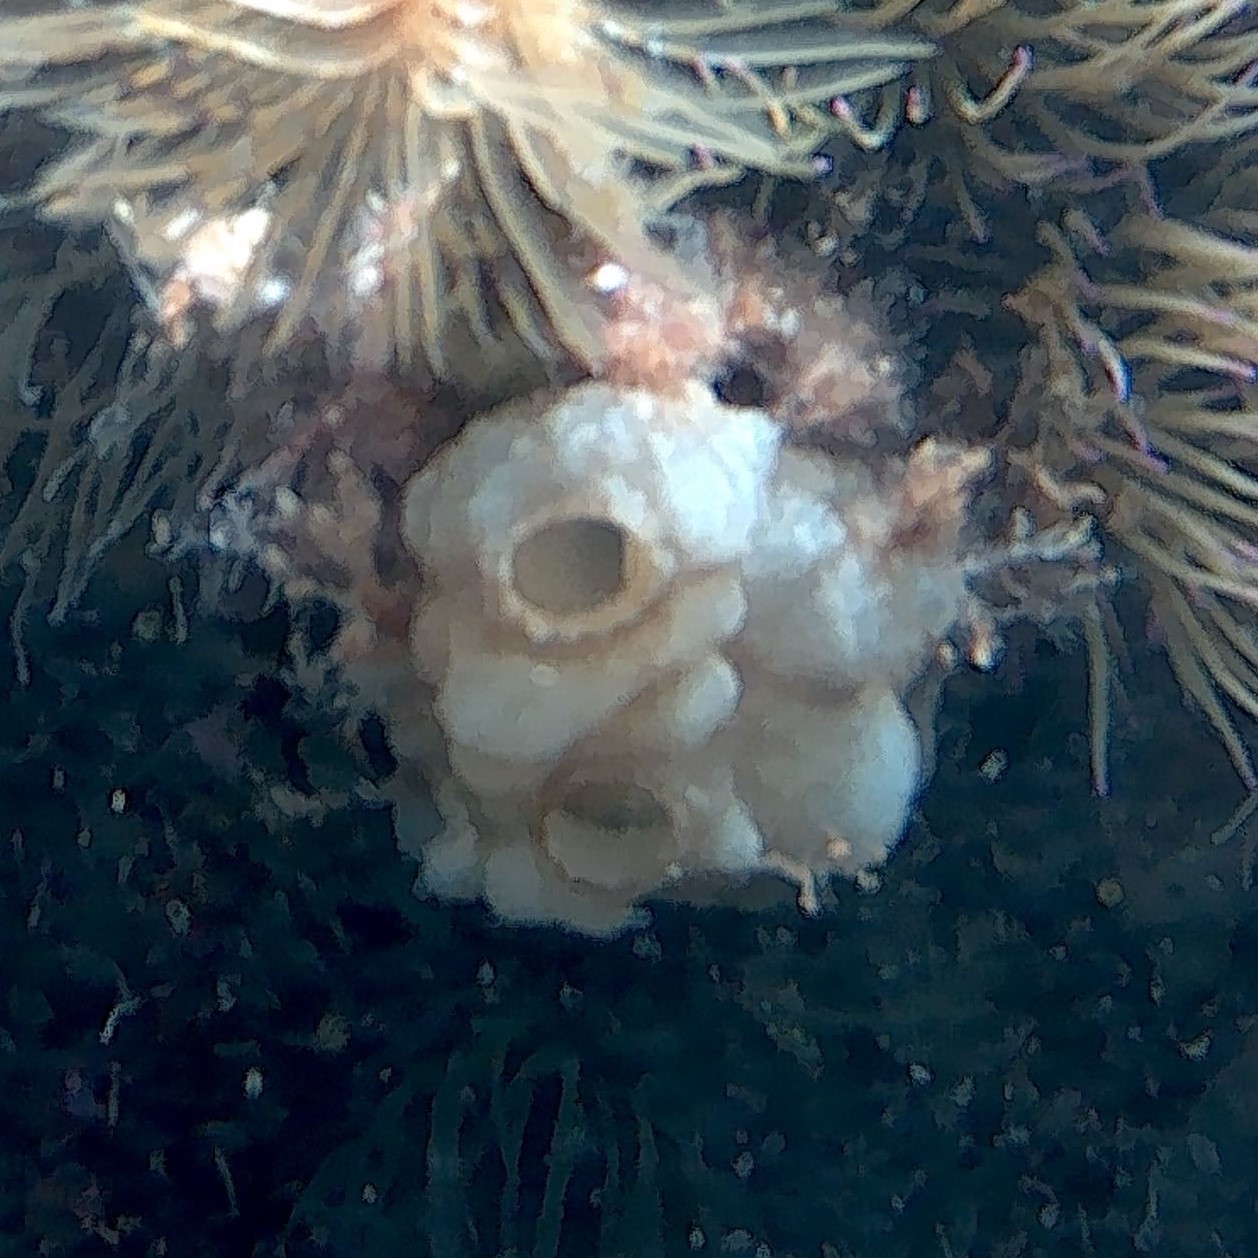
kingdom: Animalia
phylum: Chordata
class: Ascidiacea
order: Phlebobranchia
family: Ascidiidae
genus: Phallusia
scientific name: Phallusia mammillata
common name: Neptune's heart sea squirt
